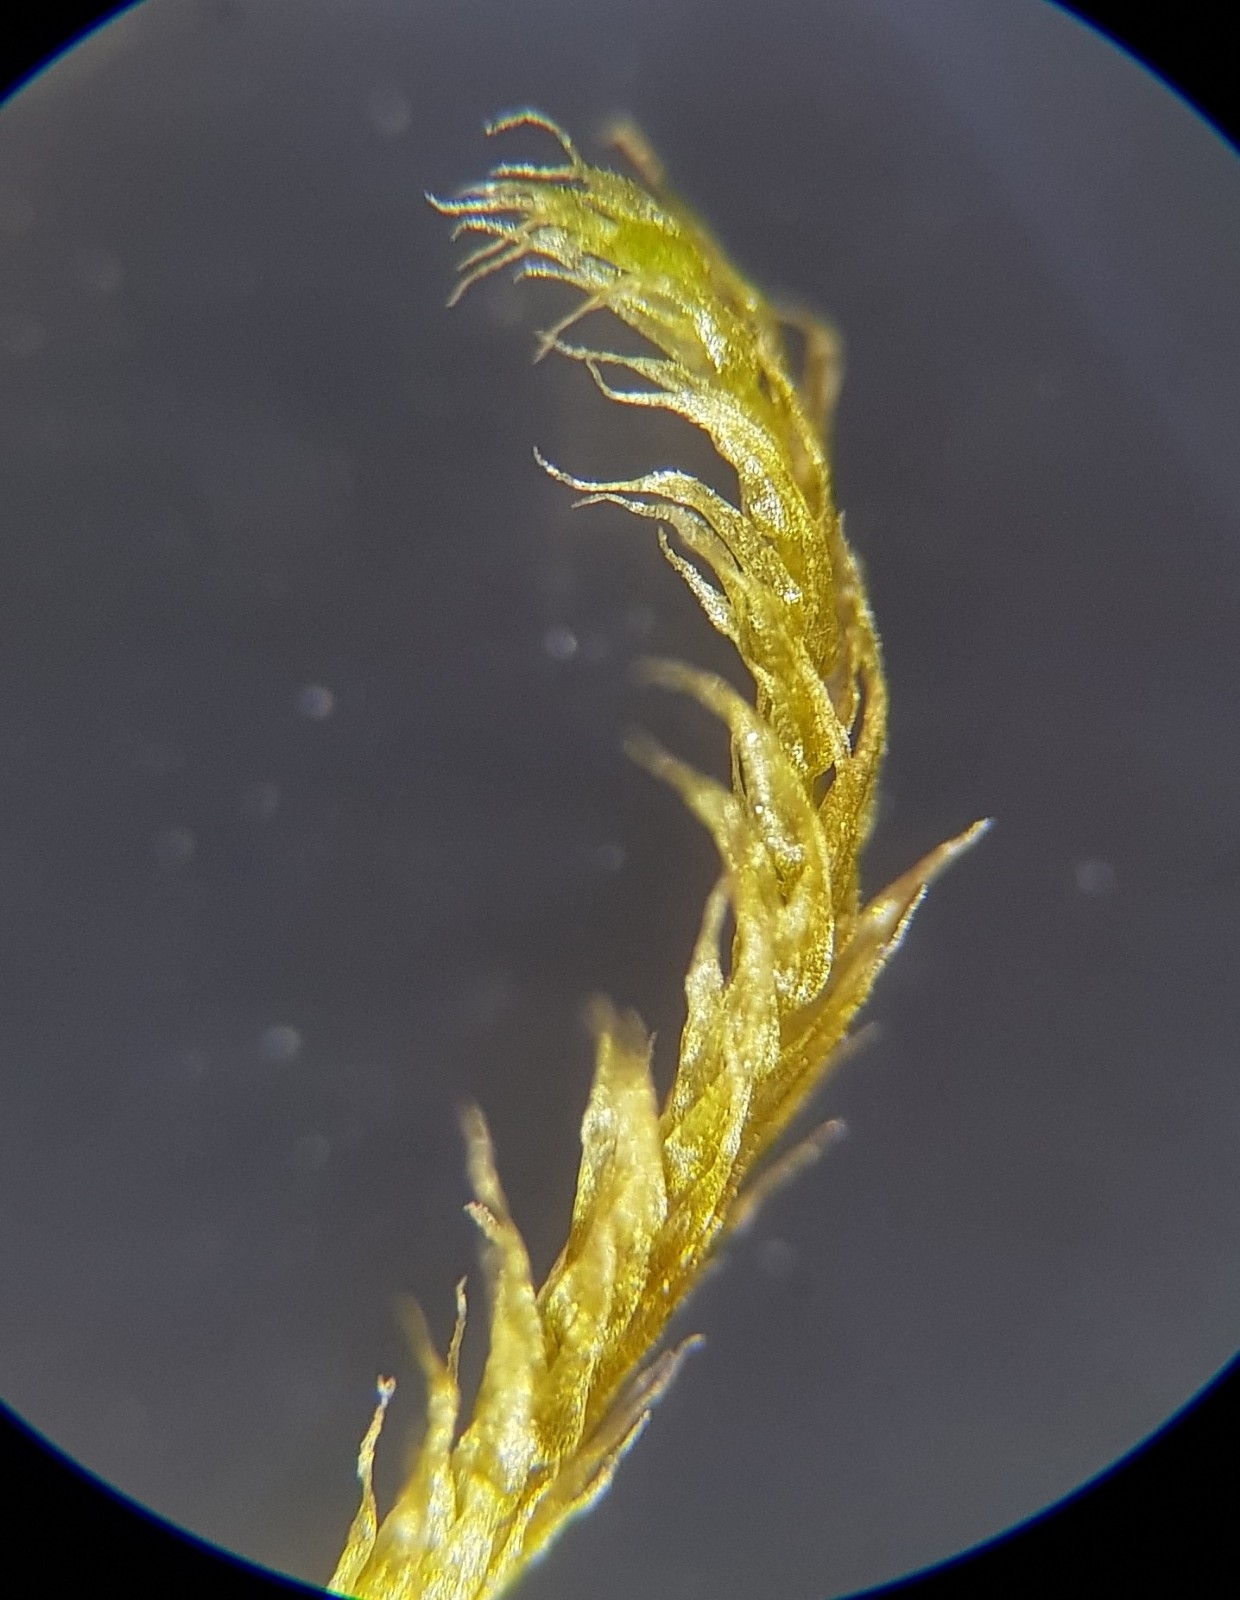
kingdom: Plantae
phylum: Bryophyta
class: Bryopsida
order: Hypnales
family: Brachytheciaceae
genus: Brachytheciastrum
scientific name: Brachytheciastrum velutinum
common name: Velvet feather-moss
